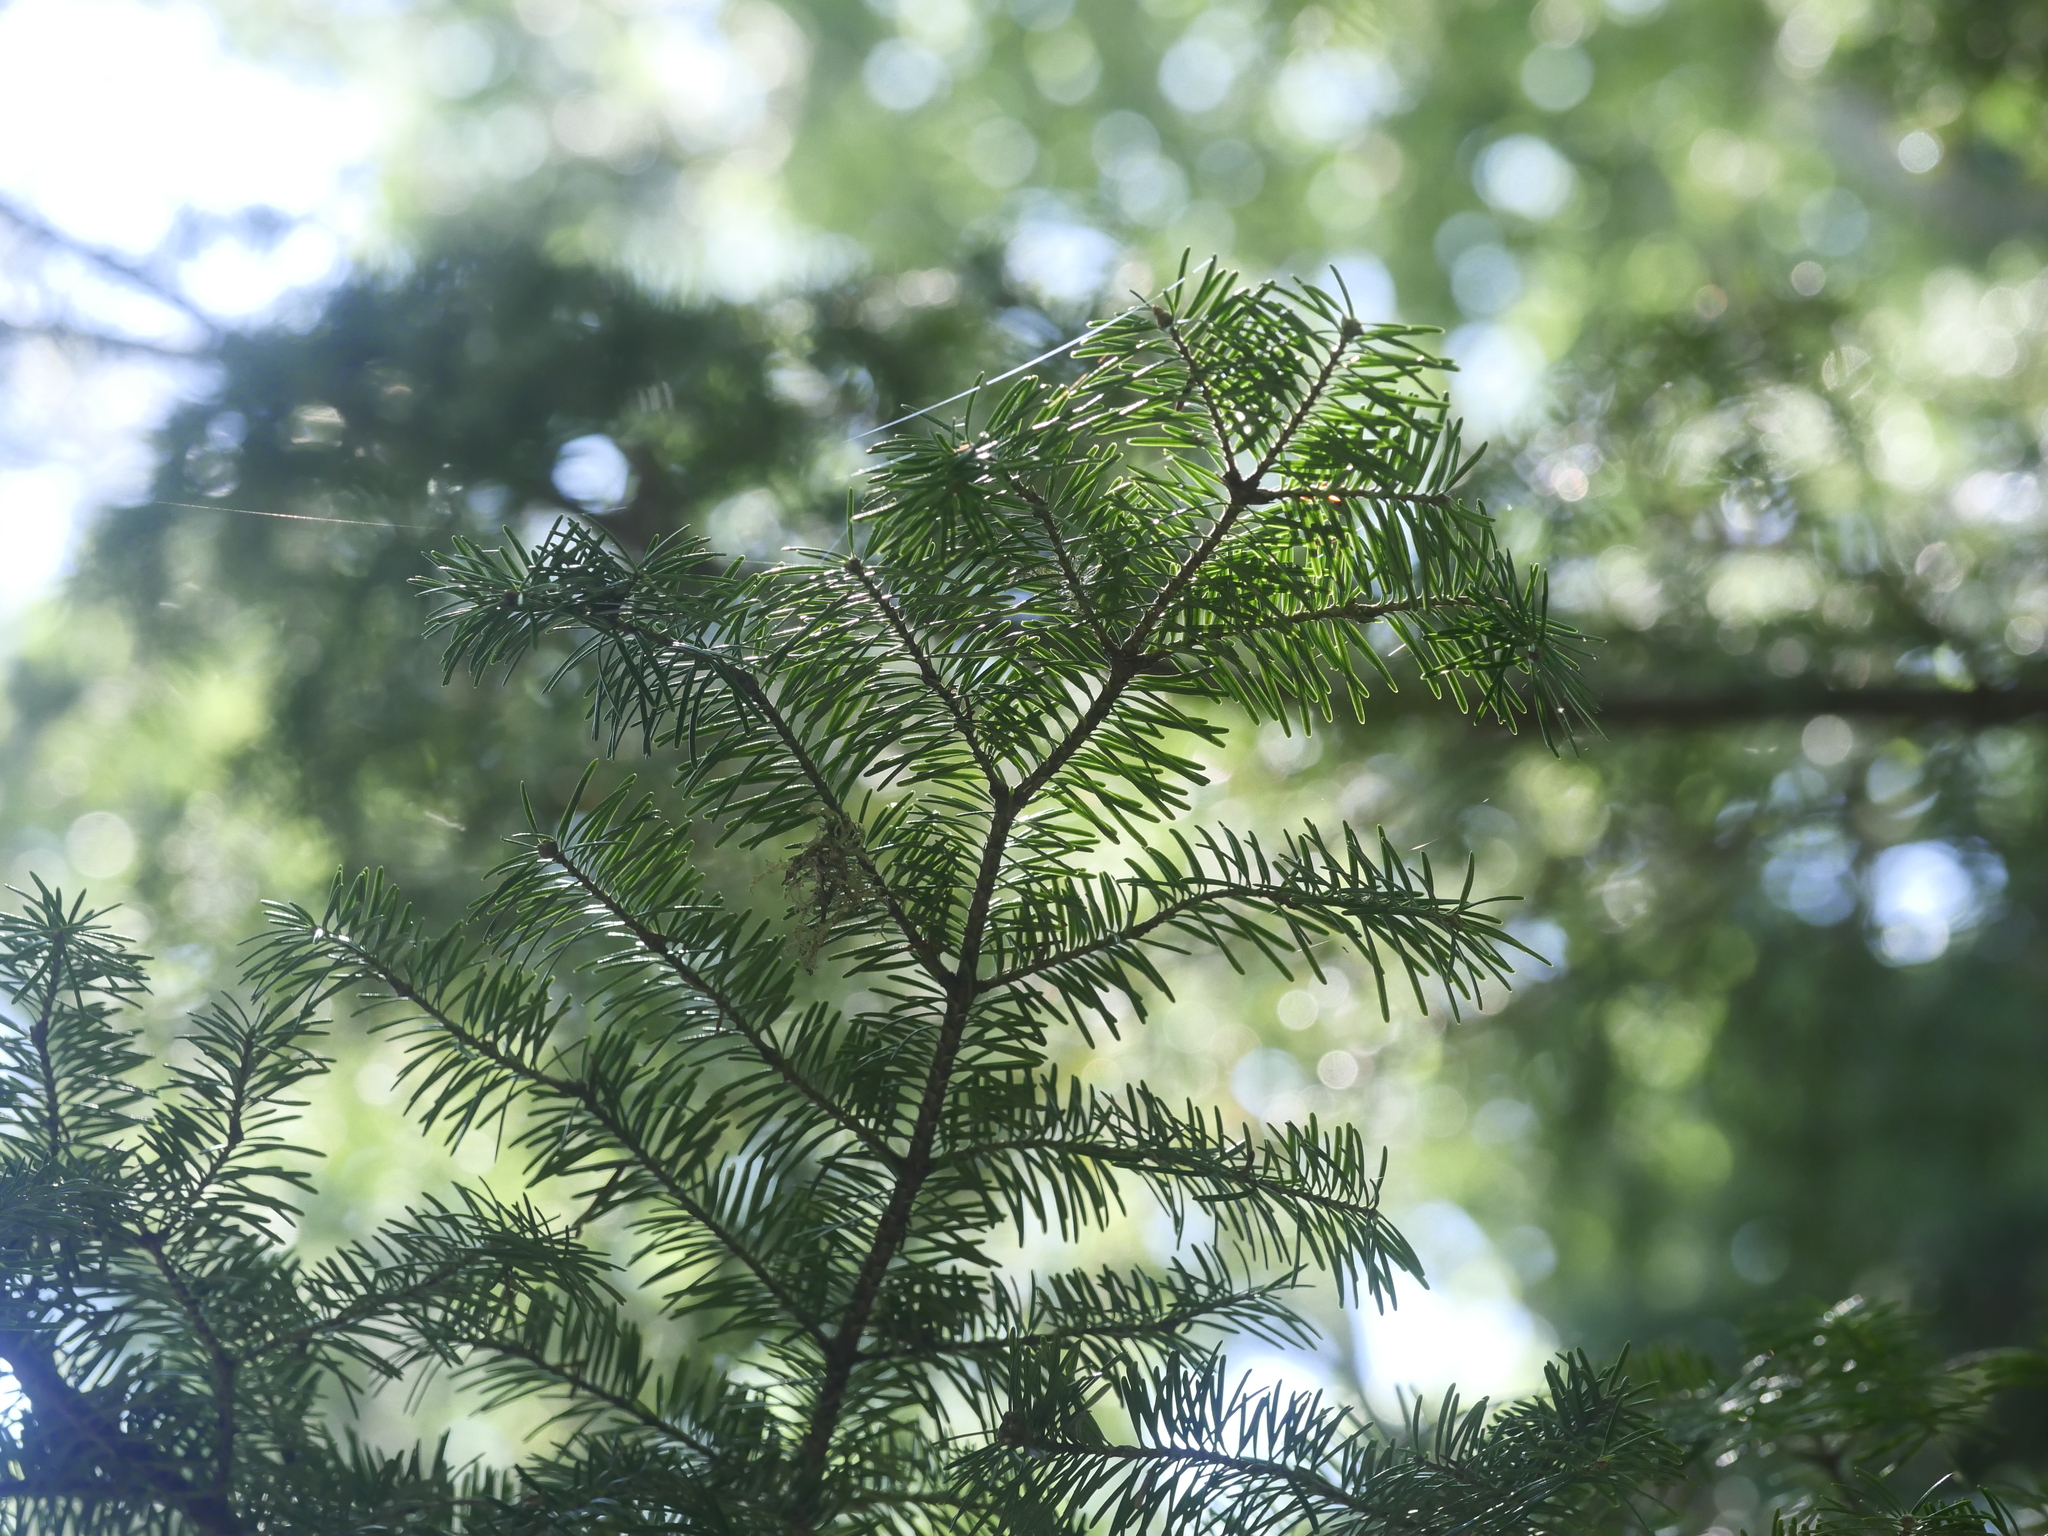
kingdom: Plantae
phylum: Tracheophyta
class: Pinopsida
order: Pinales
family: Pinaceae
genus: Abies
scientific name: Abies balsamea
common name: Balsam fir
